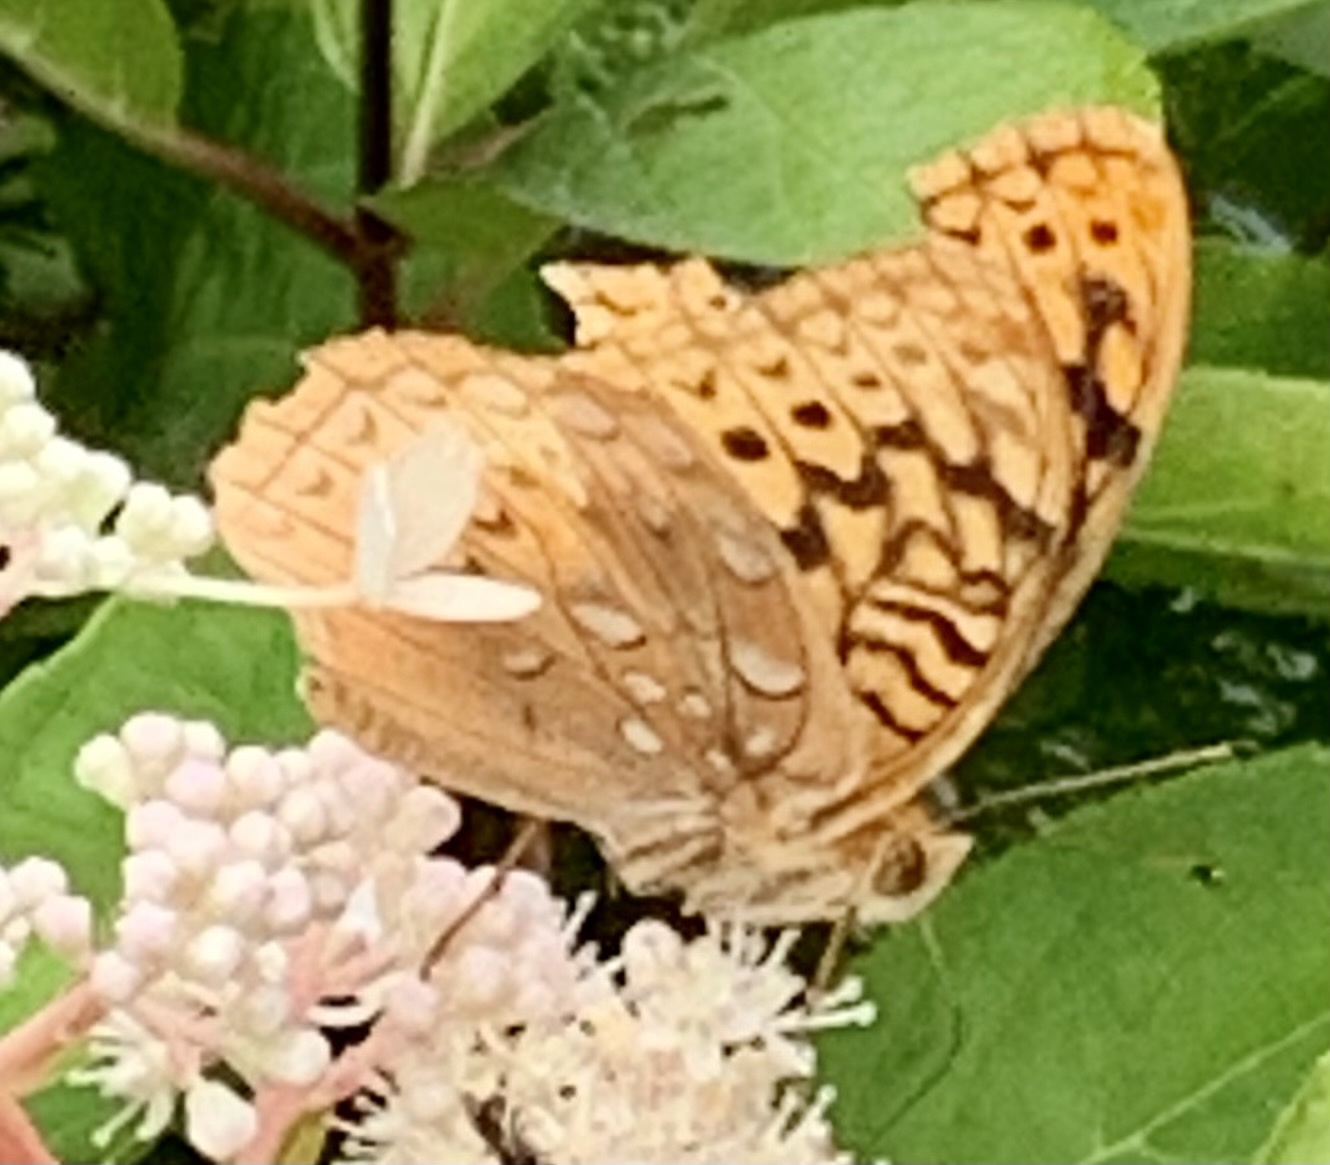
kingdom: Animalia
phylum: Arthropoda
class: Insecta
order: Lepidoptera
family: Nymphalidae
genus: Speyeria
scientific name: Speyeria cybele
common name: Great spangled fritillary
